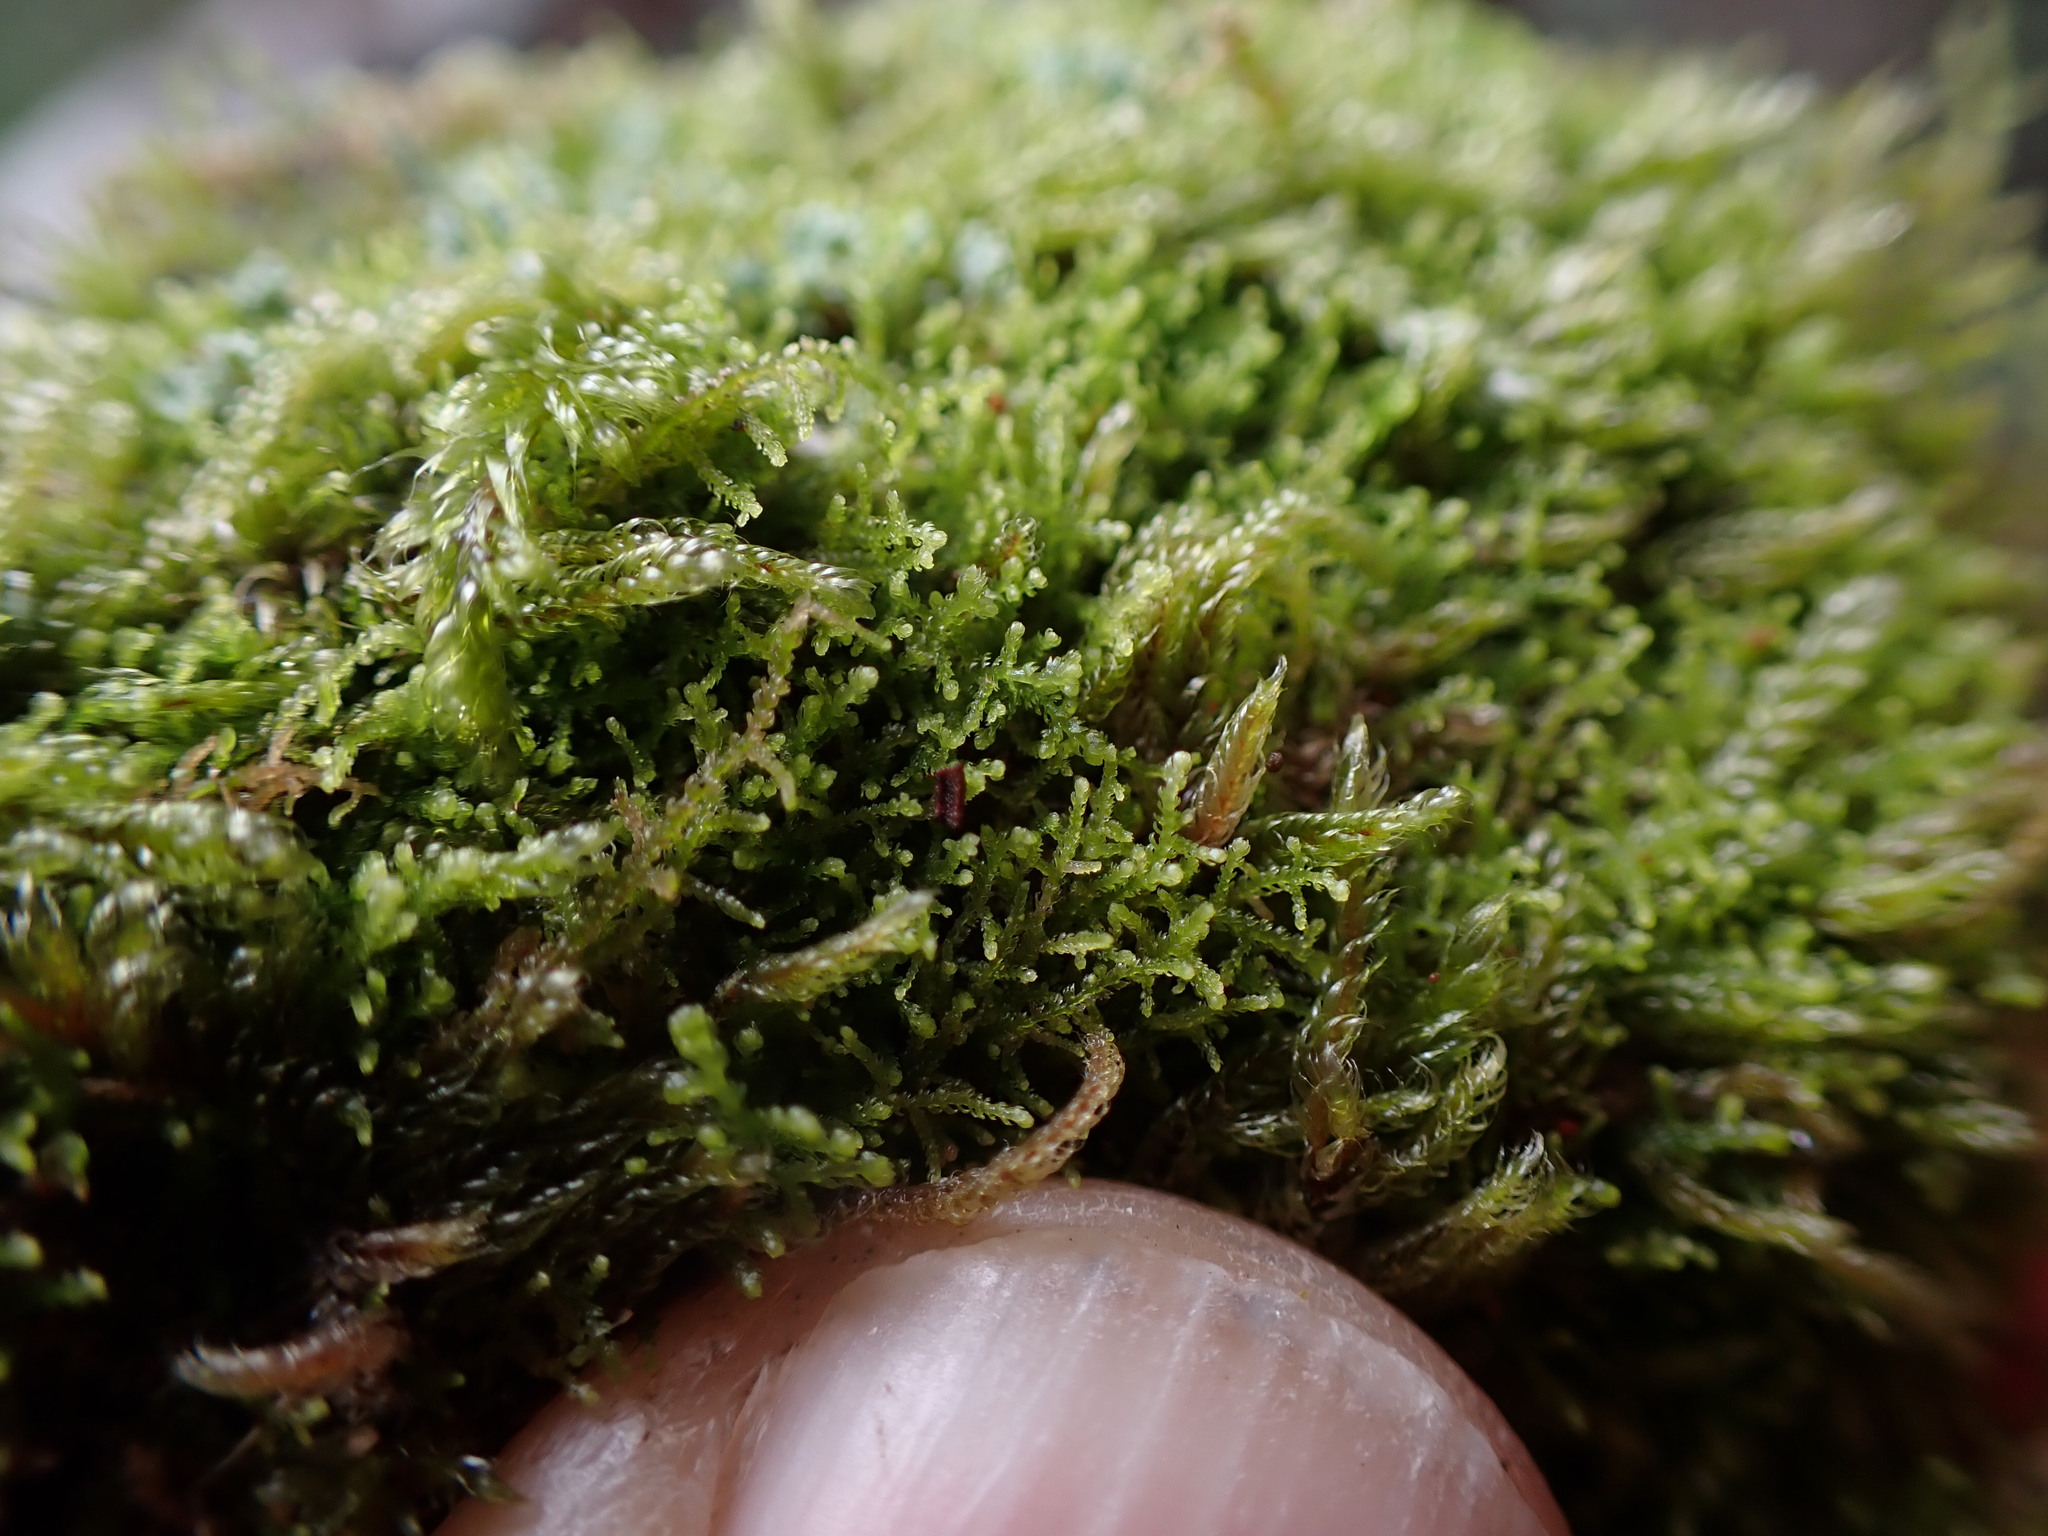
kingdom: Plantae
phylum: Marchantiophyta
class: Jungermanniopsida
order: Jungermanniales
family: Lepidoziaceae
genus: Lepidozia
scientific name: Lepidozia reptans
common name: Creeping fingerwort
